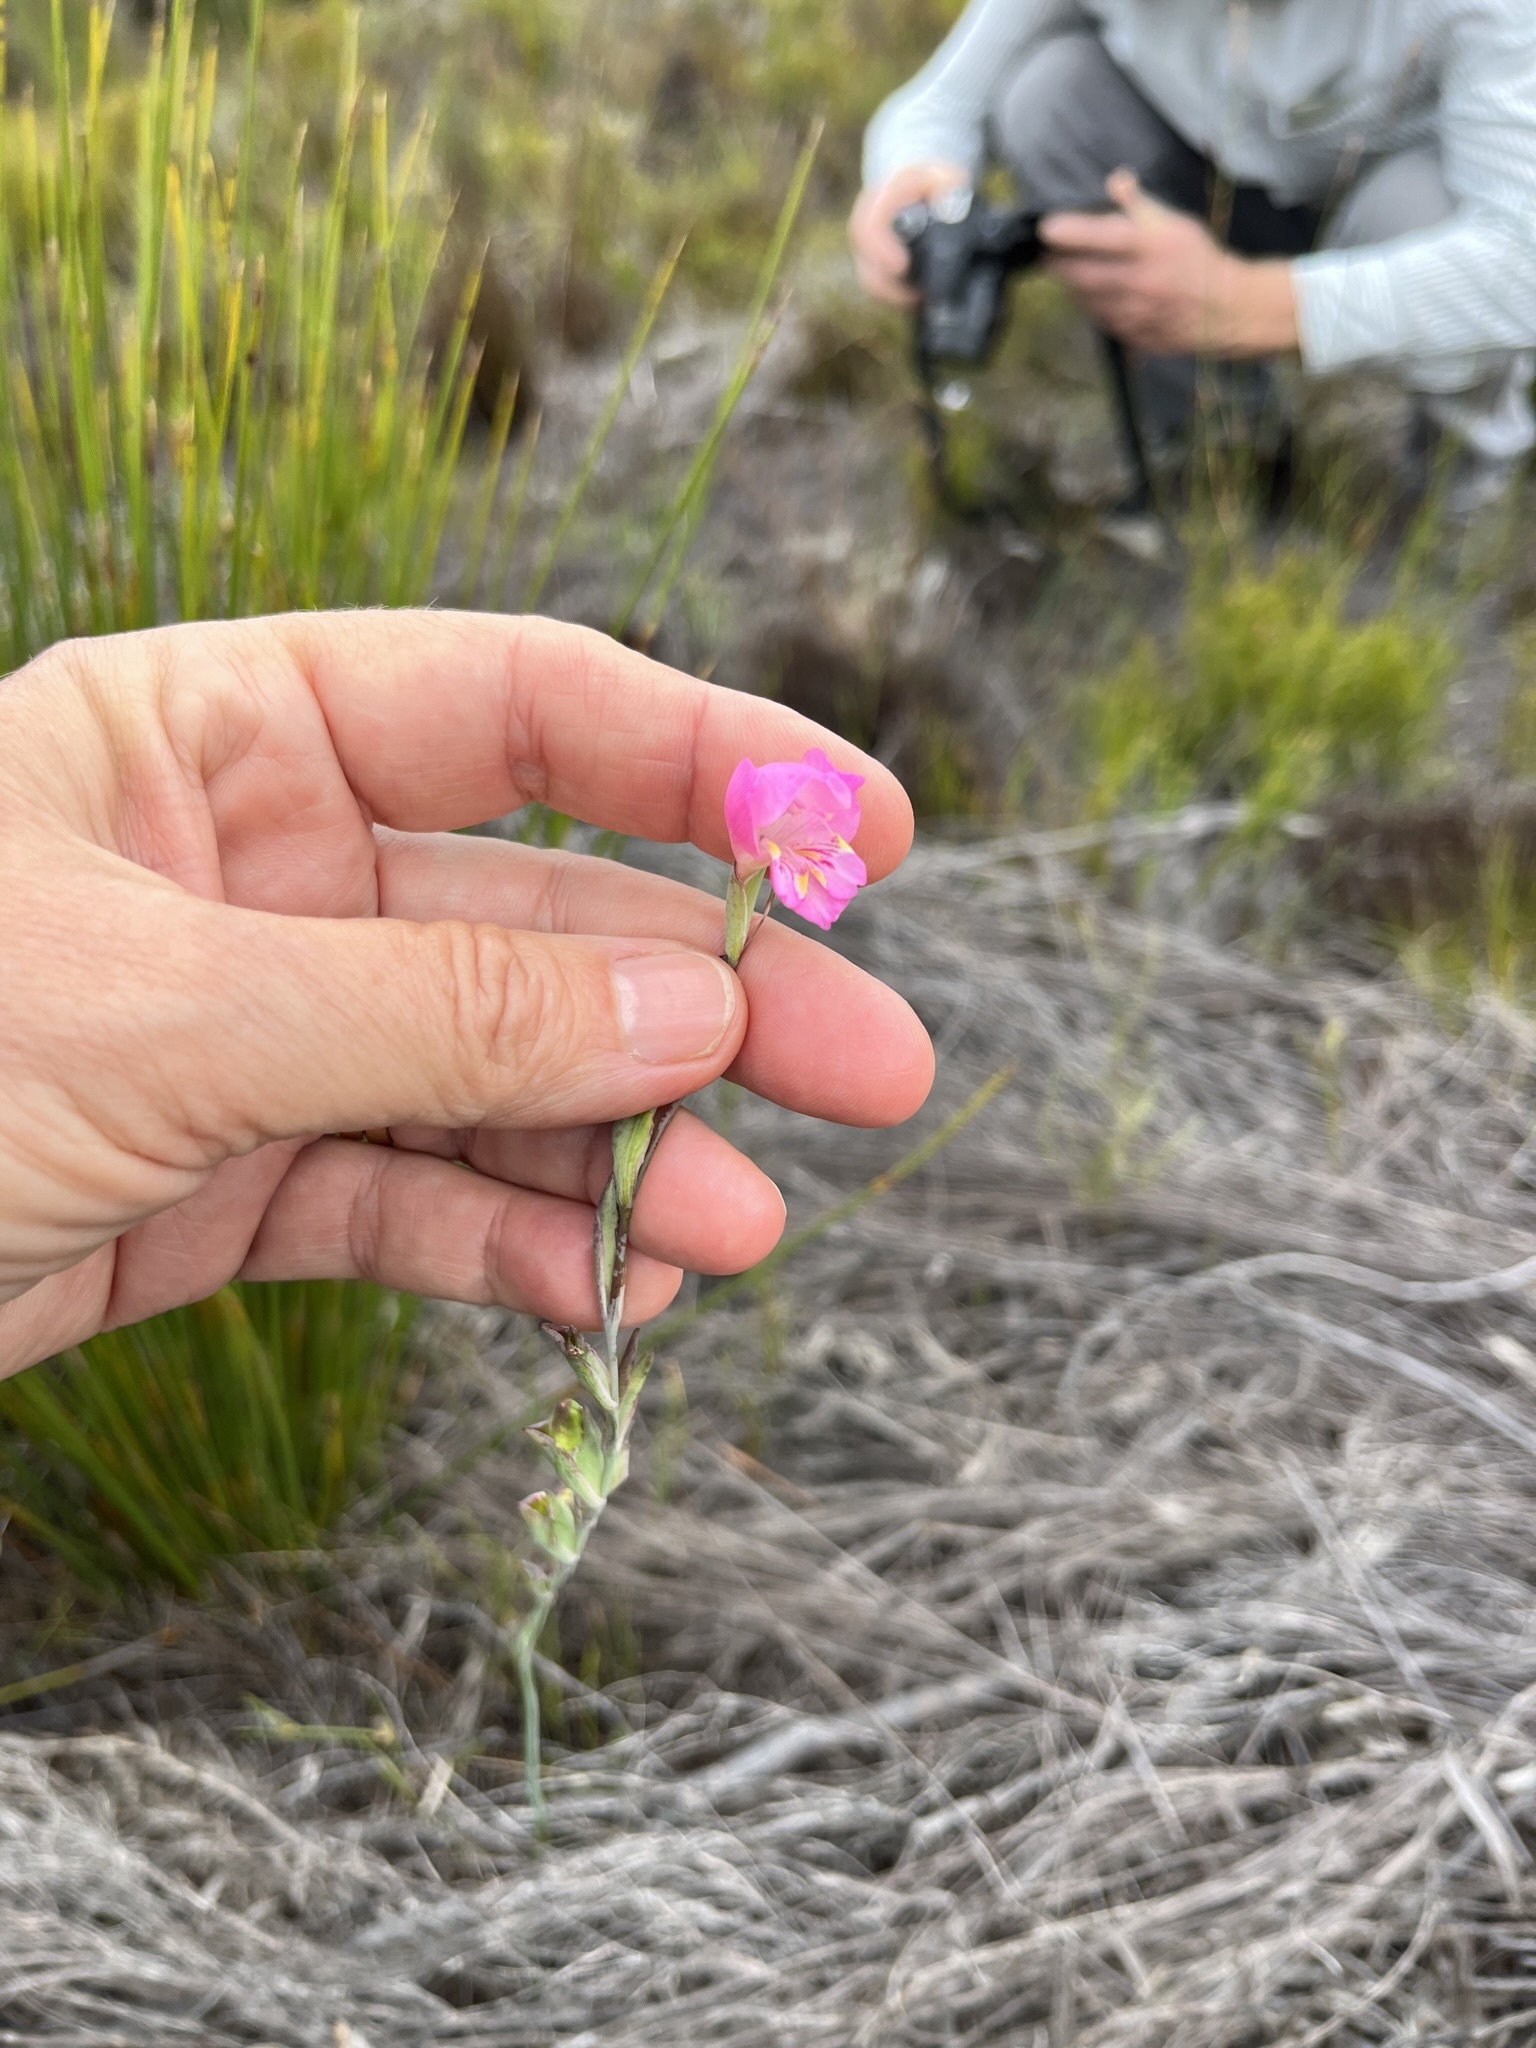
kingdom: Plantae
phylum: Tracheophyta
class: Liliopsida
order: Asparagales
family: Iridaceae
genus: Gladiolus
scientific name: Gladiolus brevifolius
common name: March pypie
